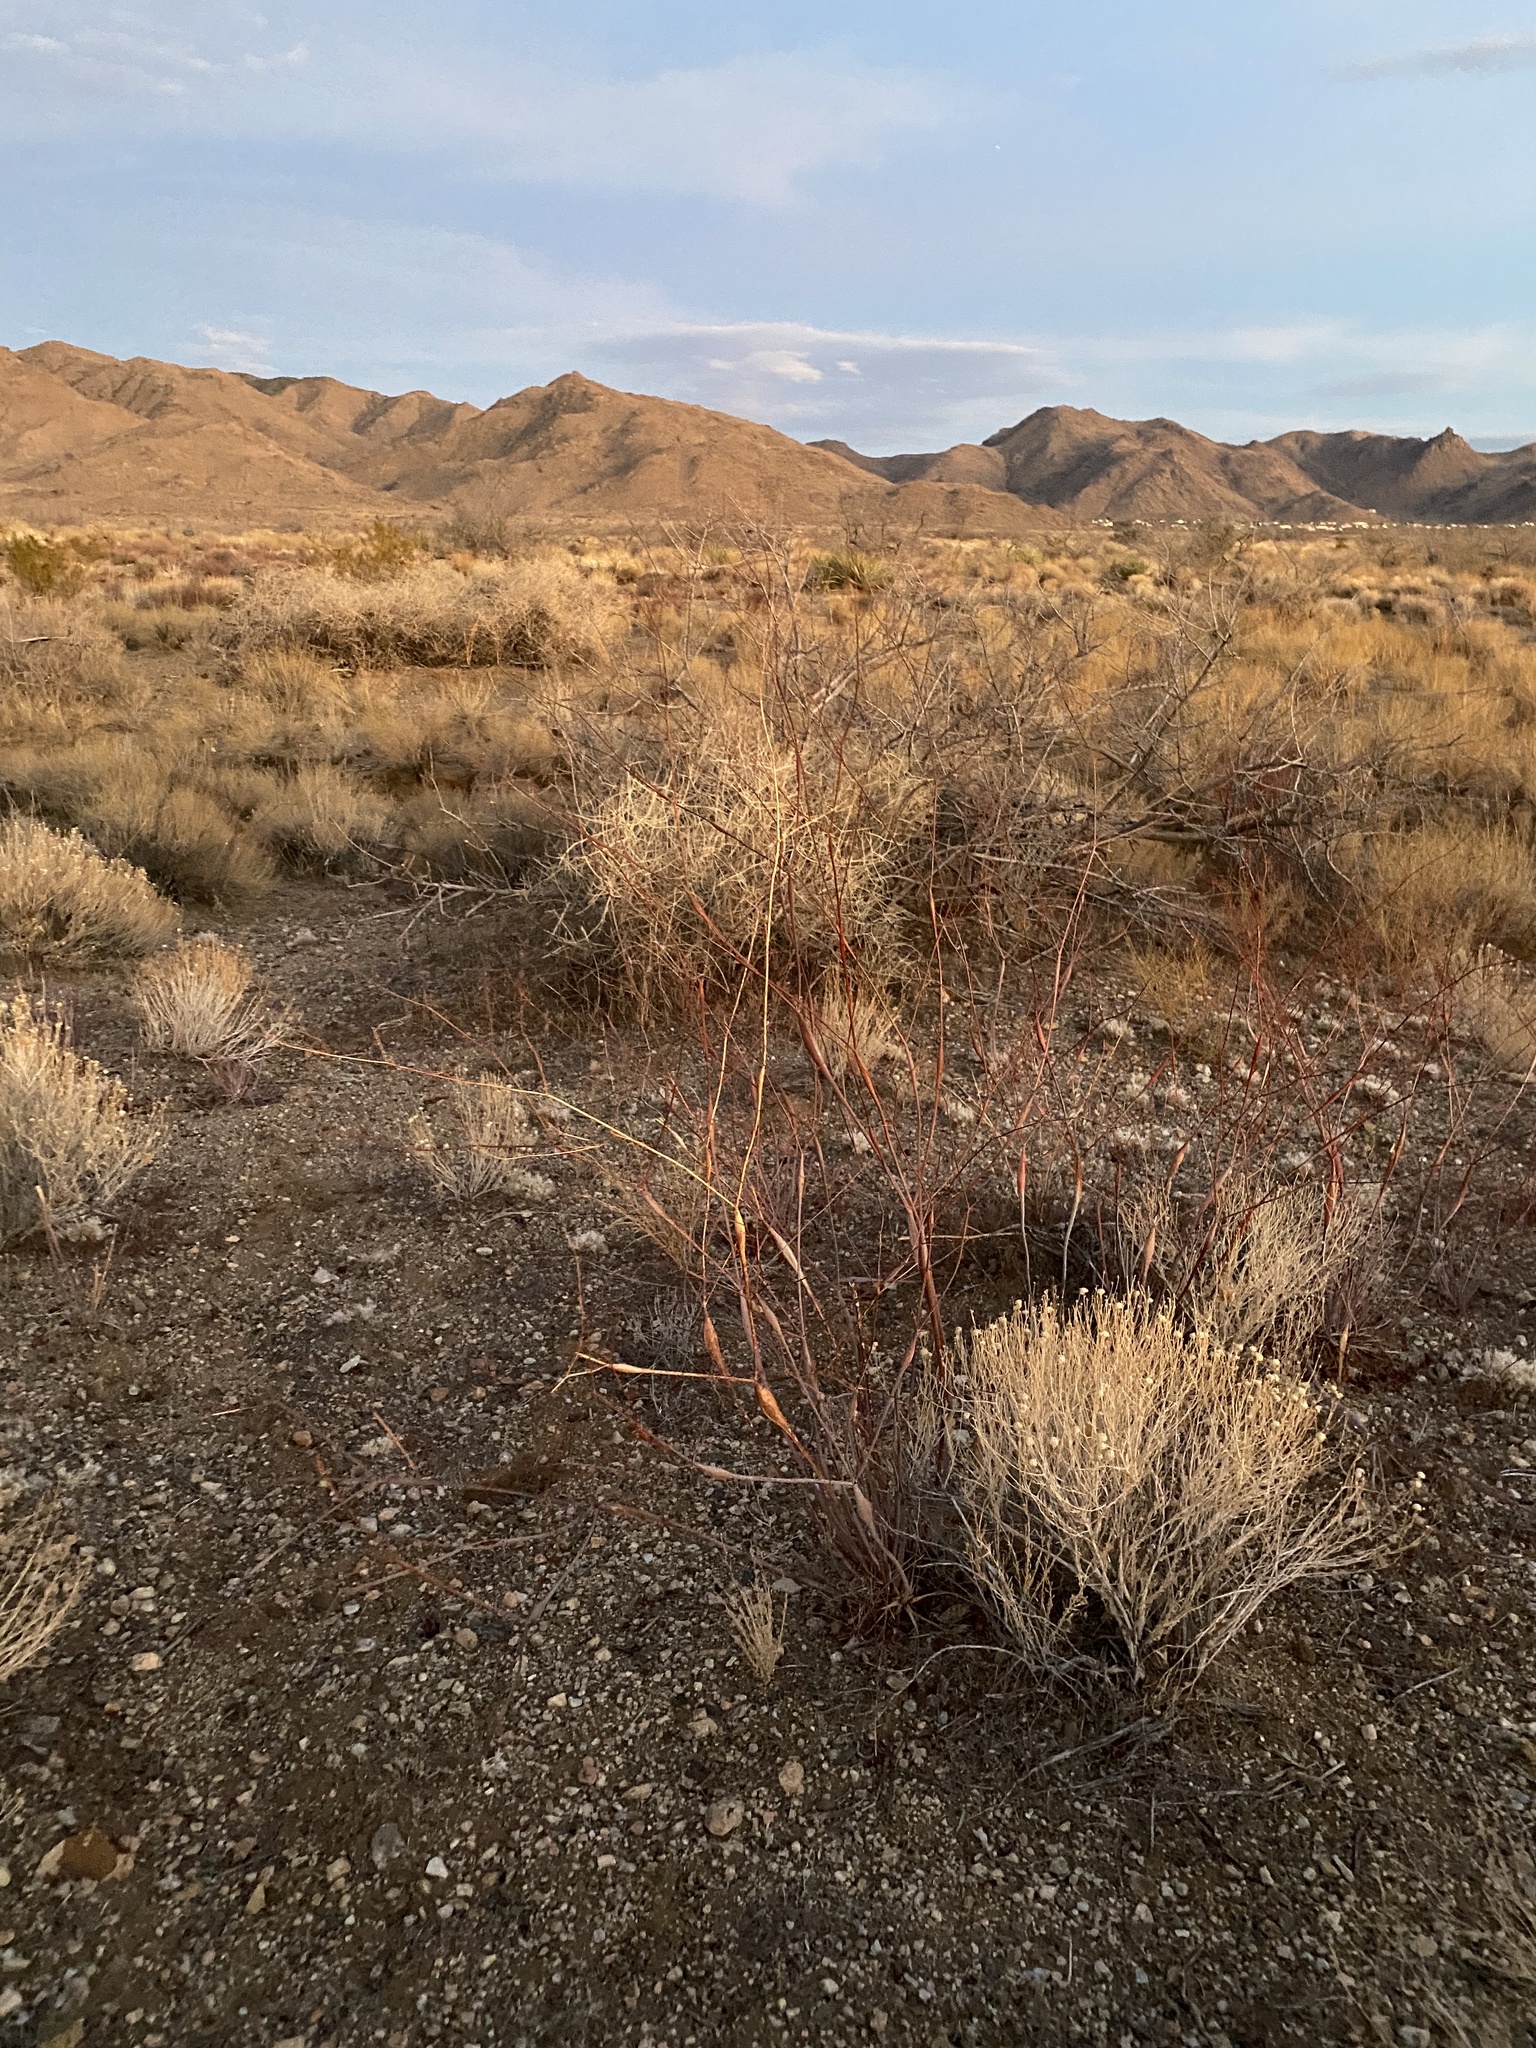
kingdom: Plantae
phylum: Tracheophyta
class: Magnoliopsida
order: Caryophyllales
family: Polygonaceae
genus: Eriogonum
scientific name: Eriogonum inflatum
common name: Desert trumpet
